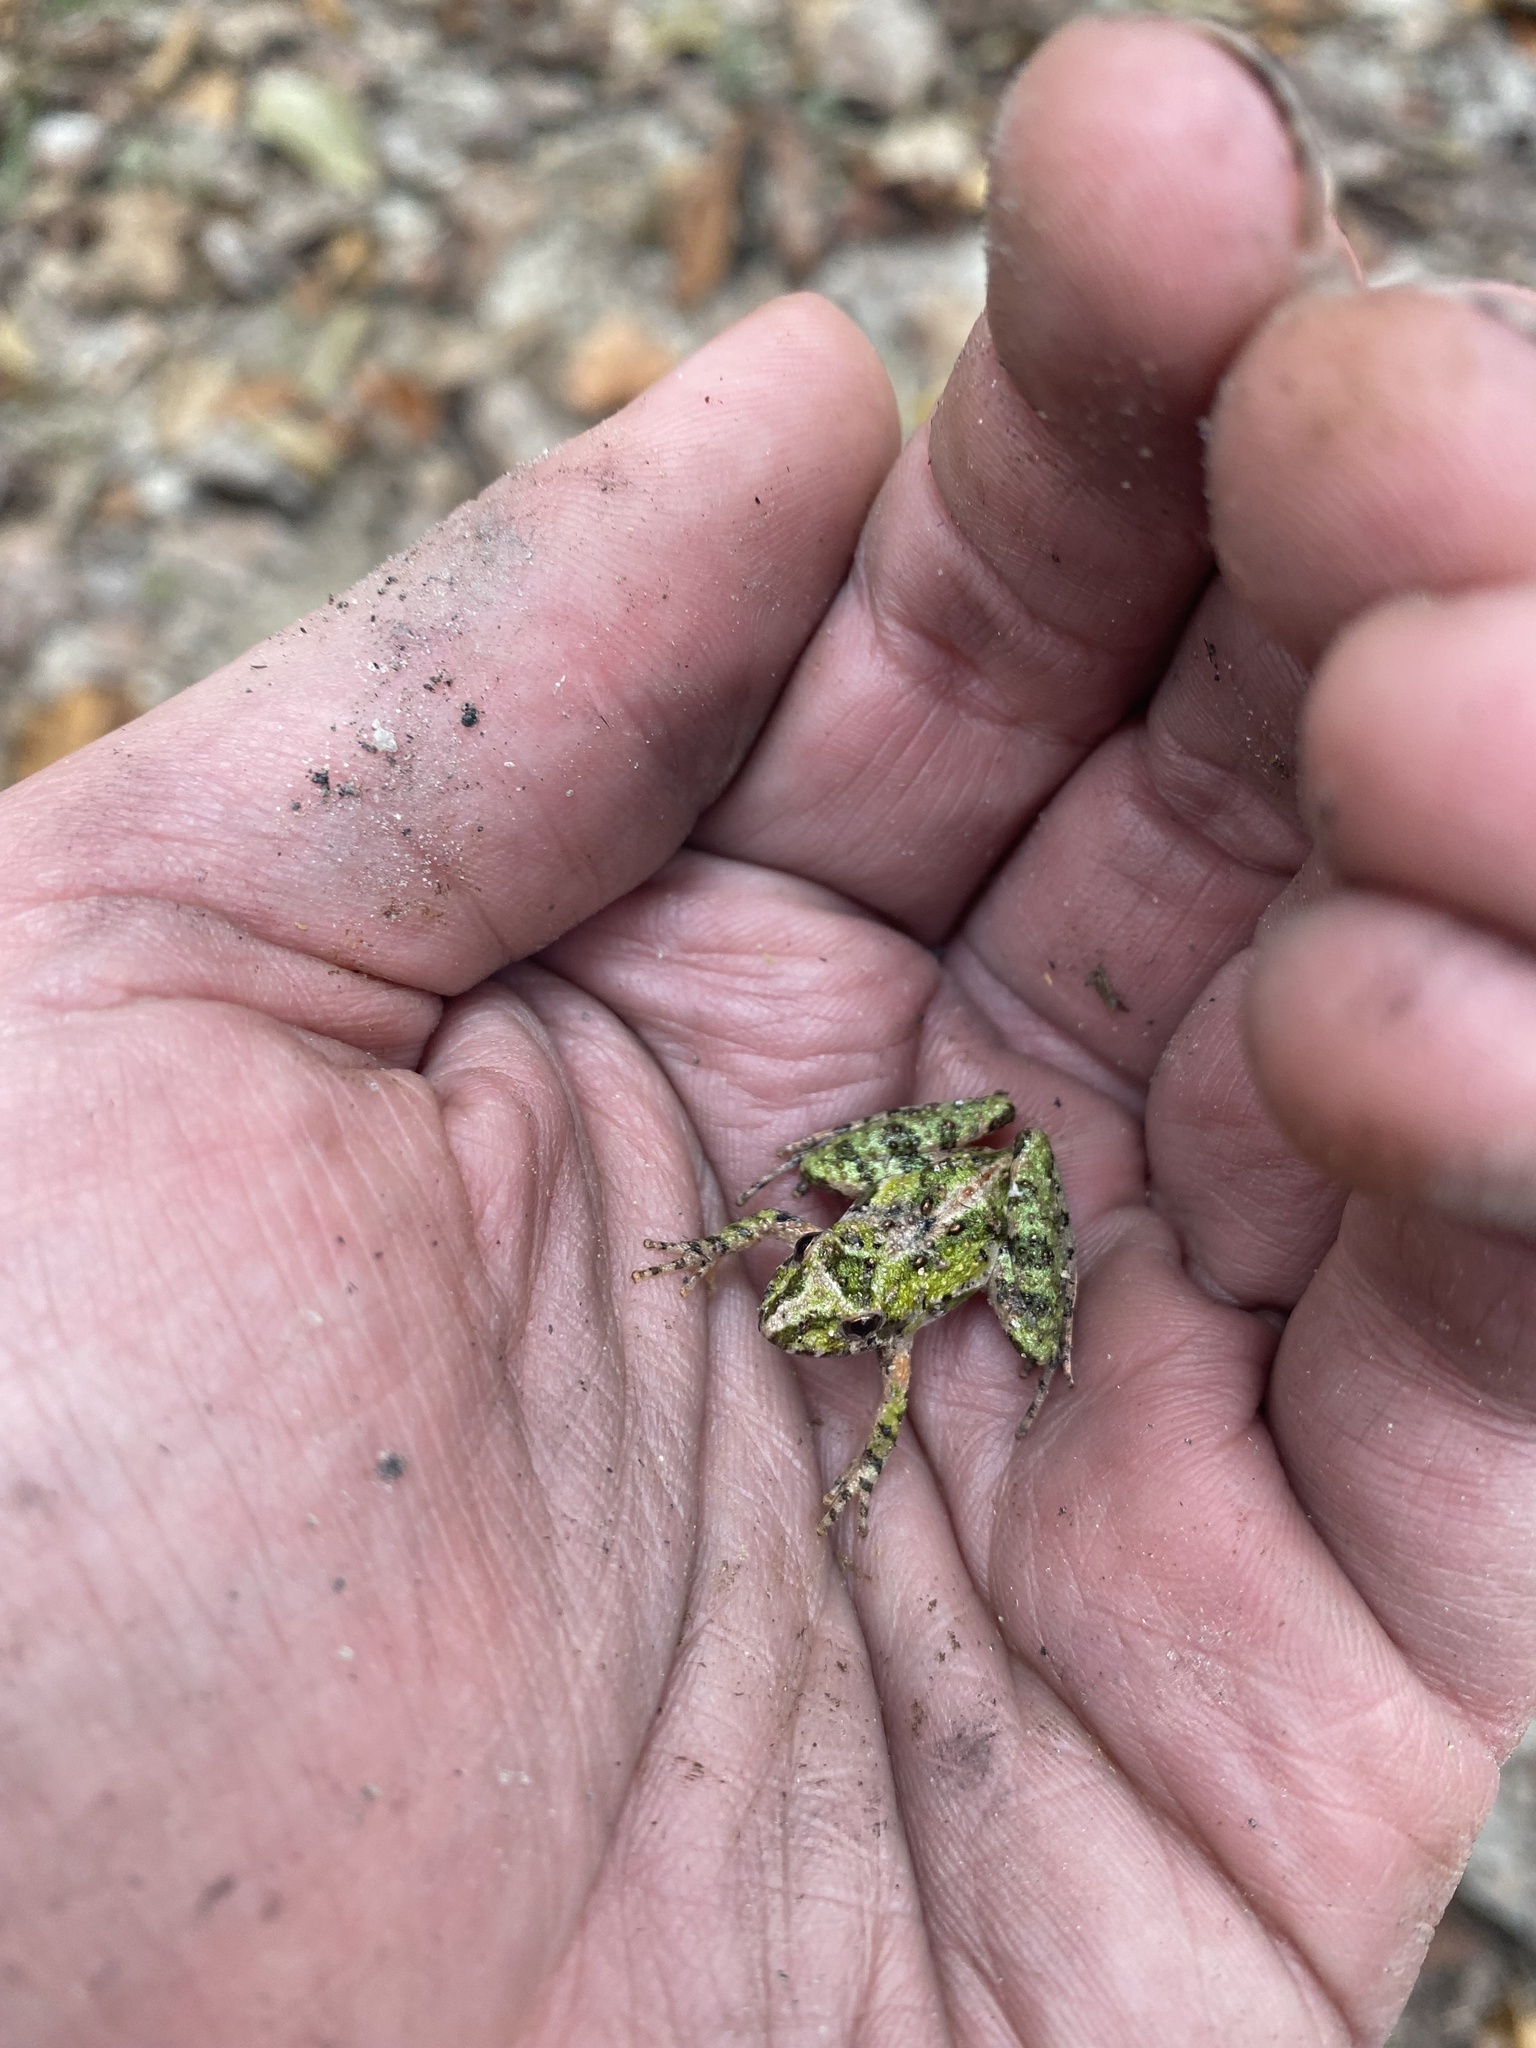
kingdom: Animalia
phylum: Chordata
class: Amphibia
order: Anura
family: Hylidae
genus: Acris
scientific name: Acris gryllus
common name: Southern cricket frog
